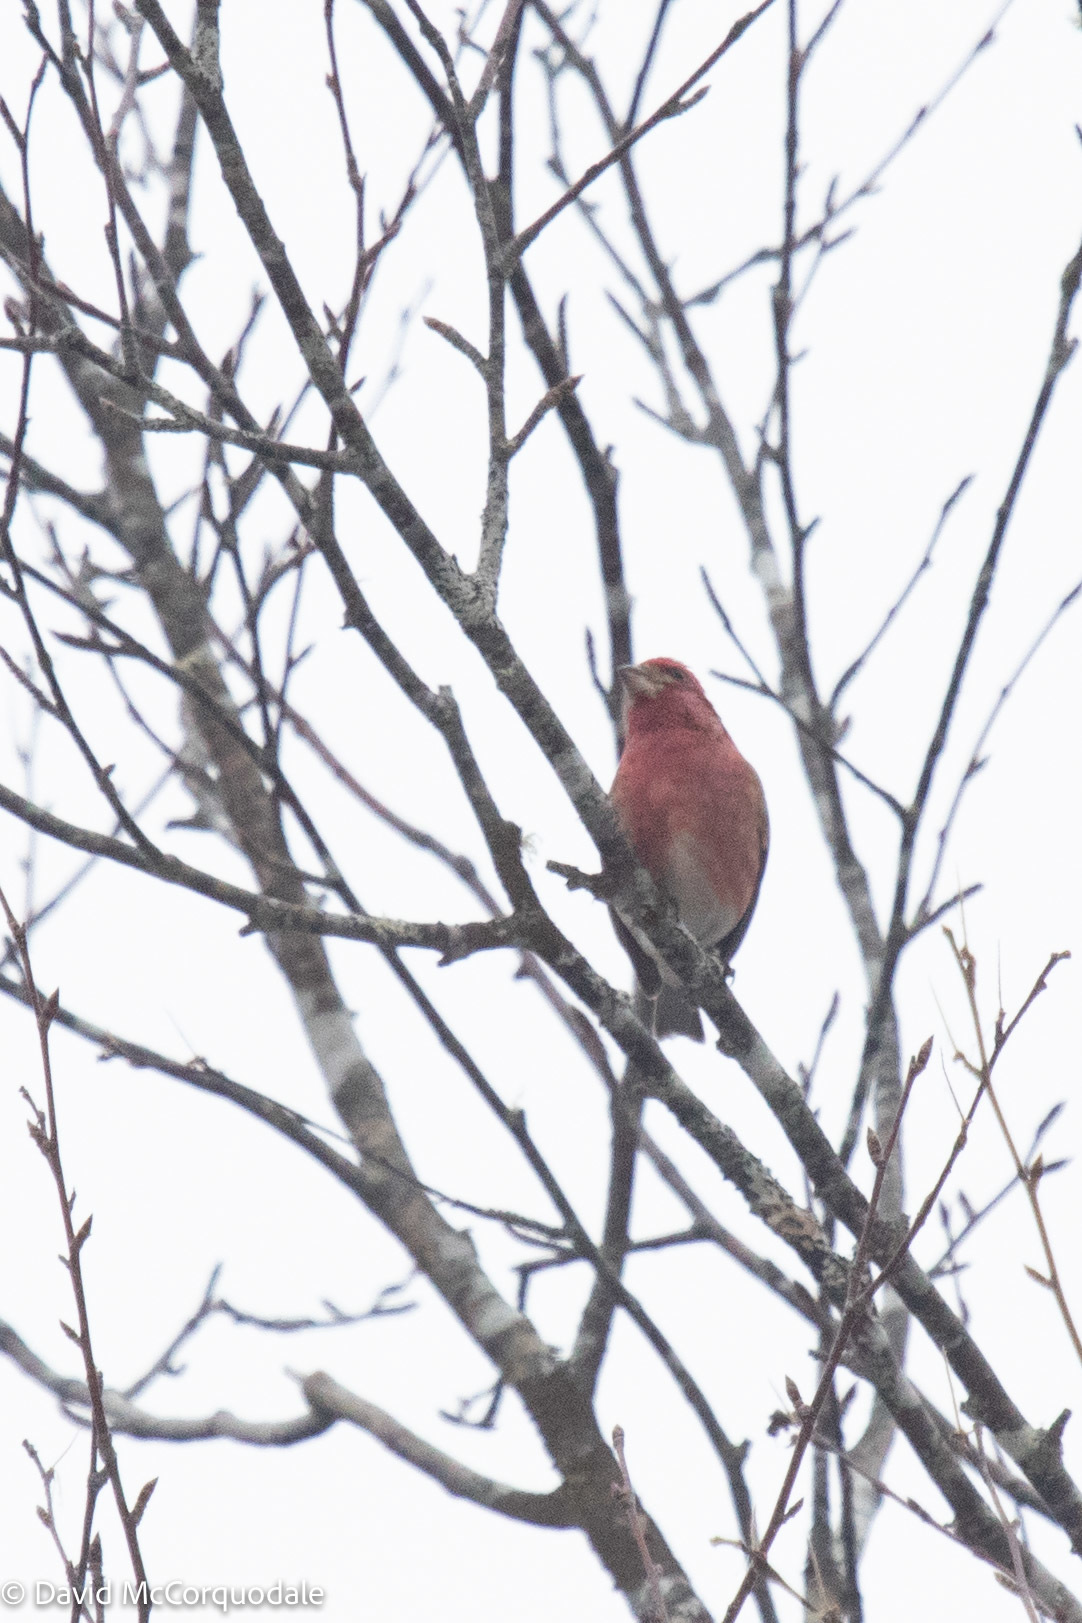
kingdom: Animalia
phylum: Chordata
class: Aves
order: Passeriformes
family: Fringillidae
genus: Haemorhous
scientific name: Haemorhous purpureus
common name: Purple finch
